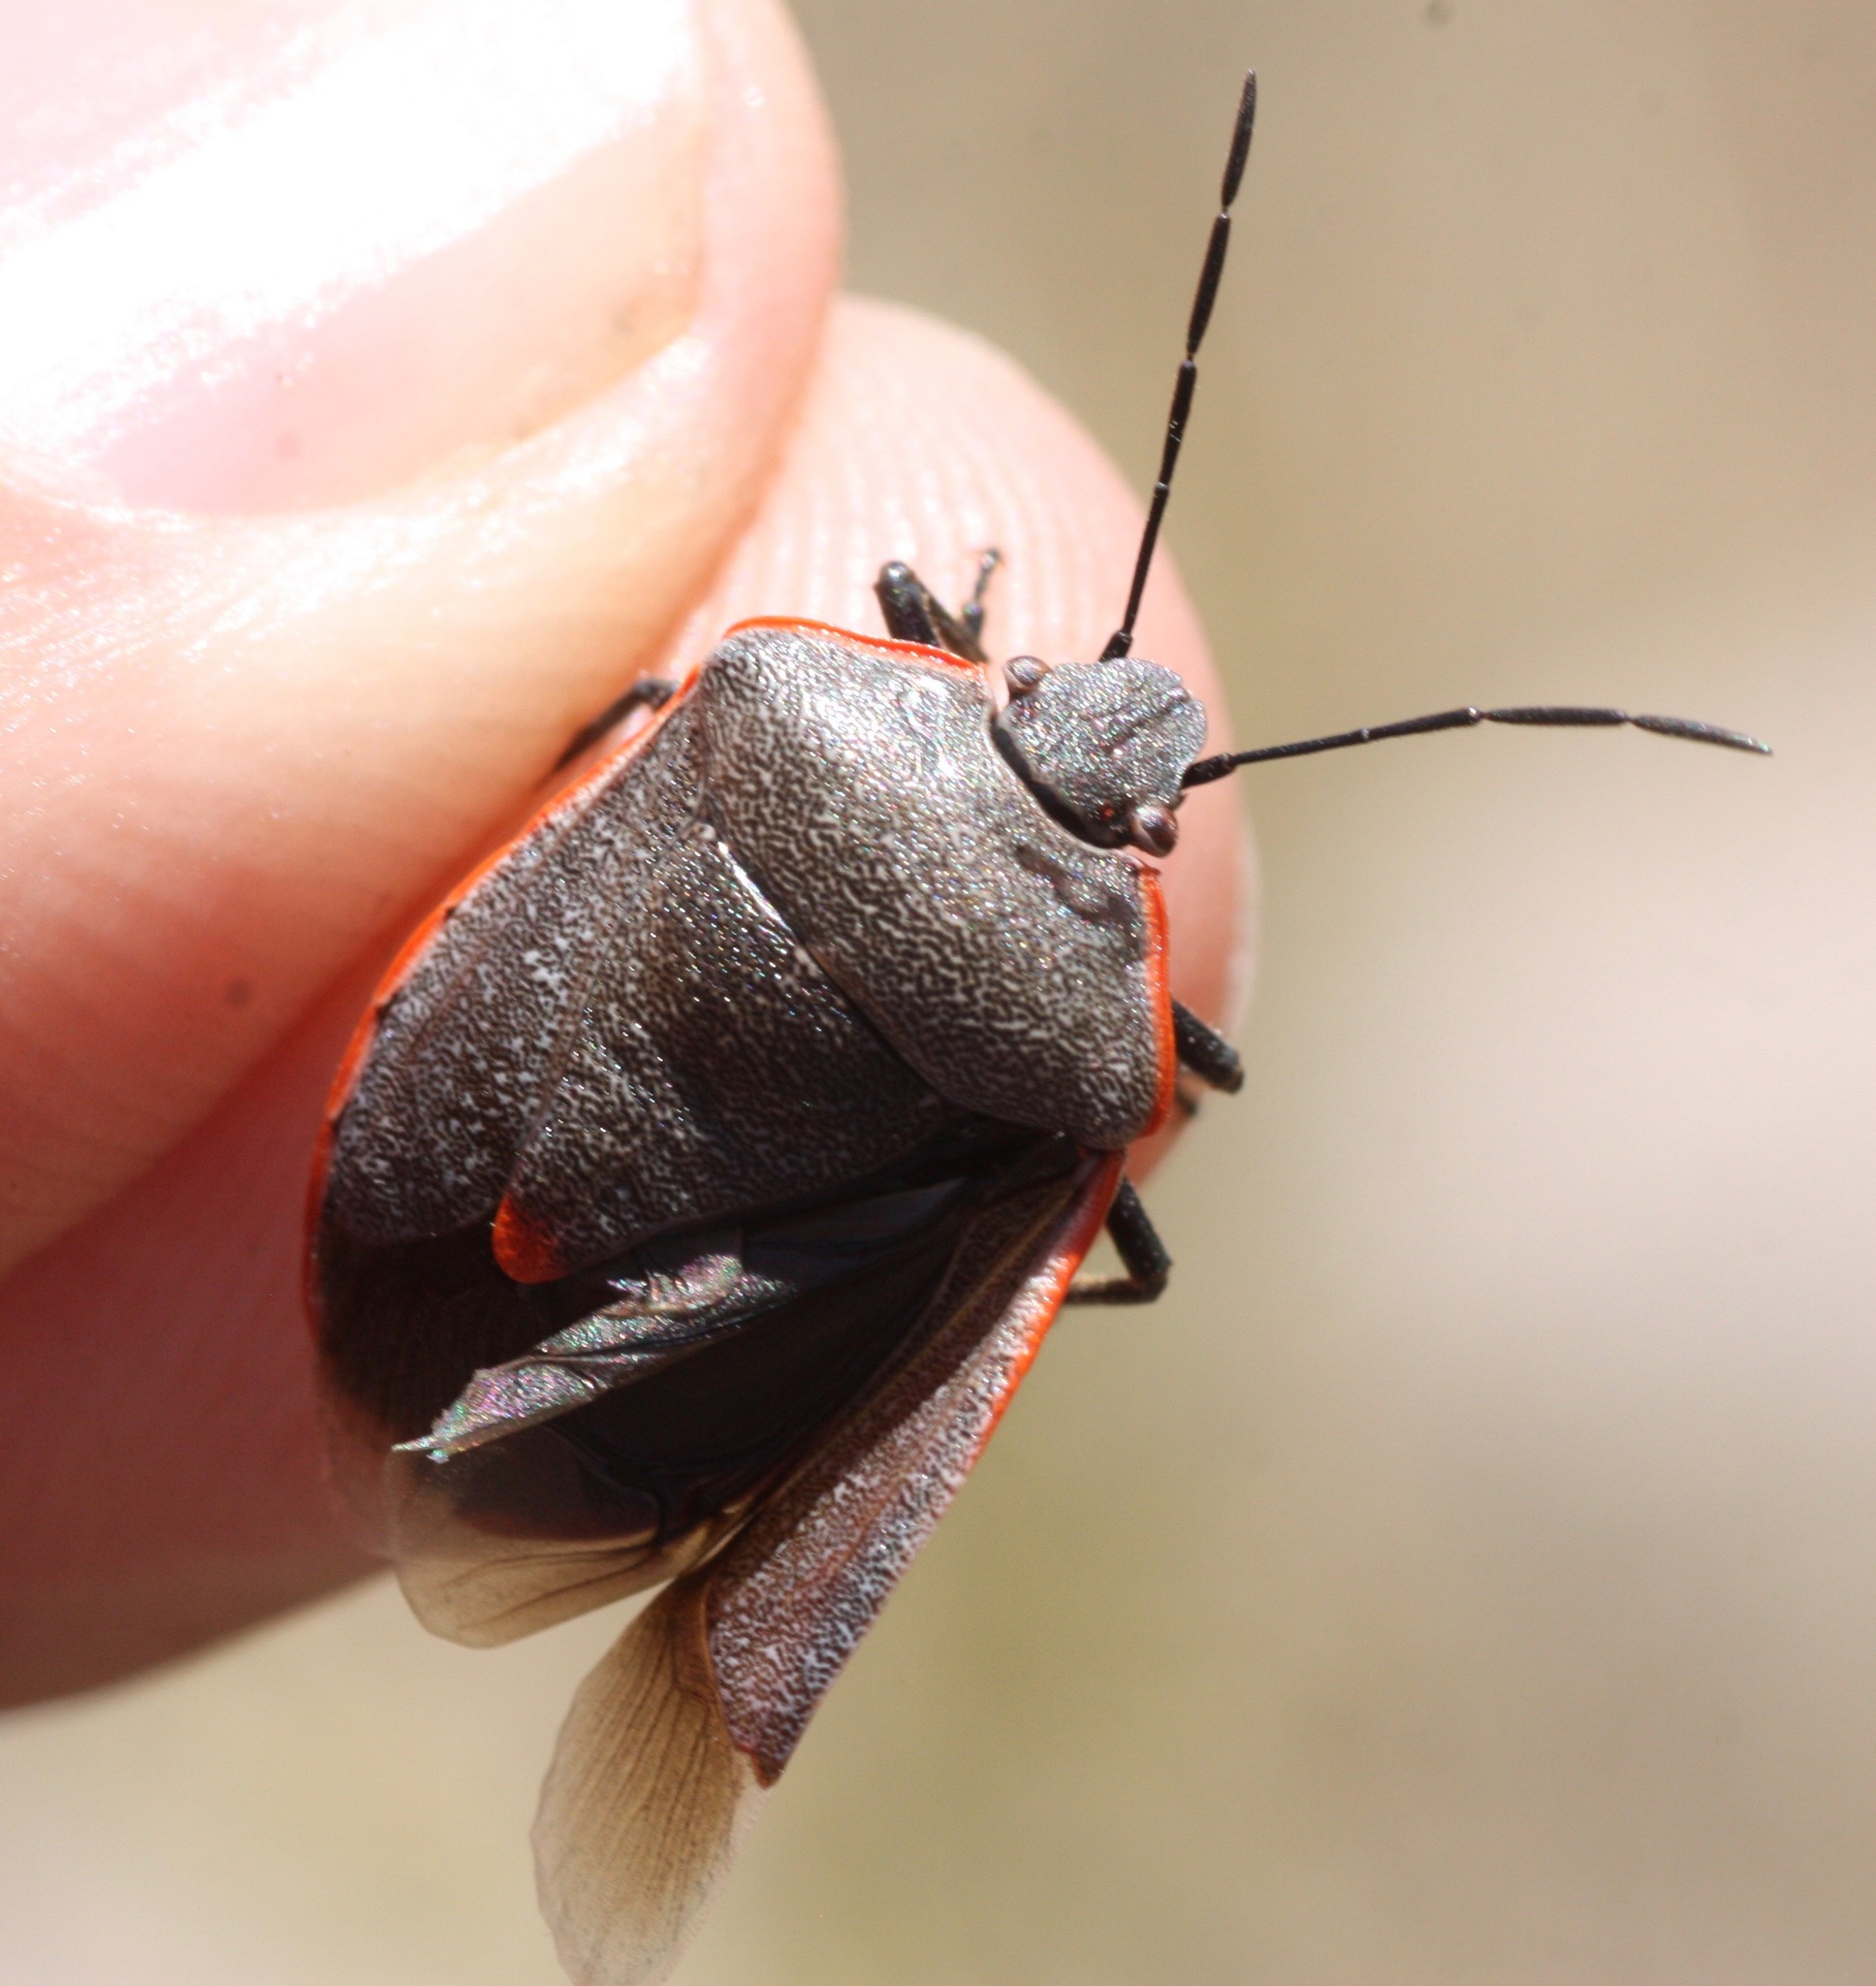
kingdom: Animalia
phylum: Arthropoda
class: Insecta
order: Hemiptera
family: Pentatomidae
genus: Chlorochroa
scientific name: Chlorochroa ligata
